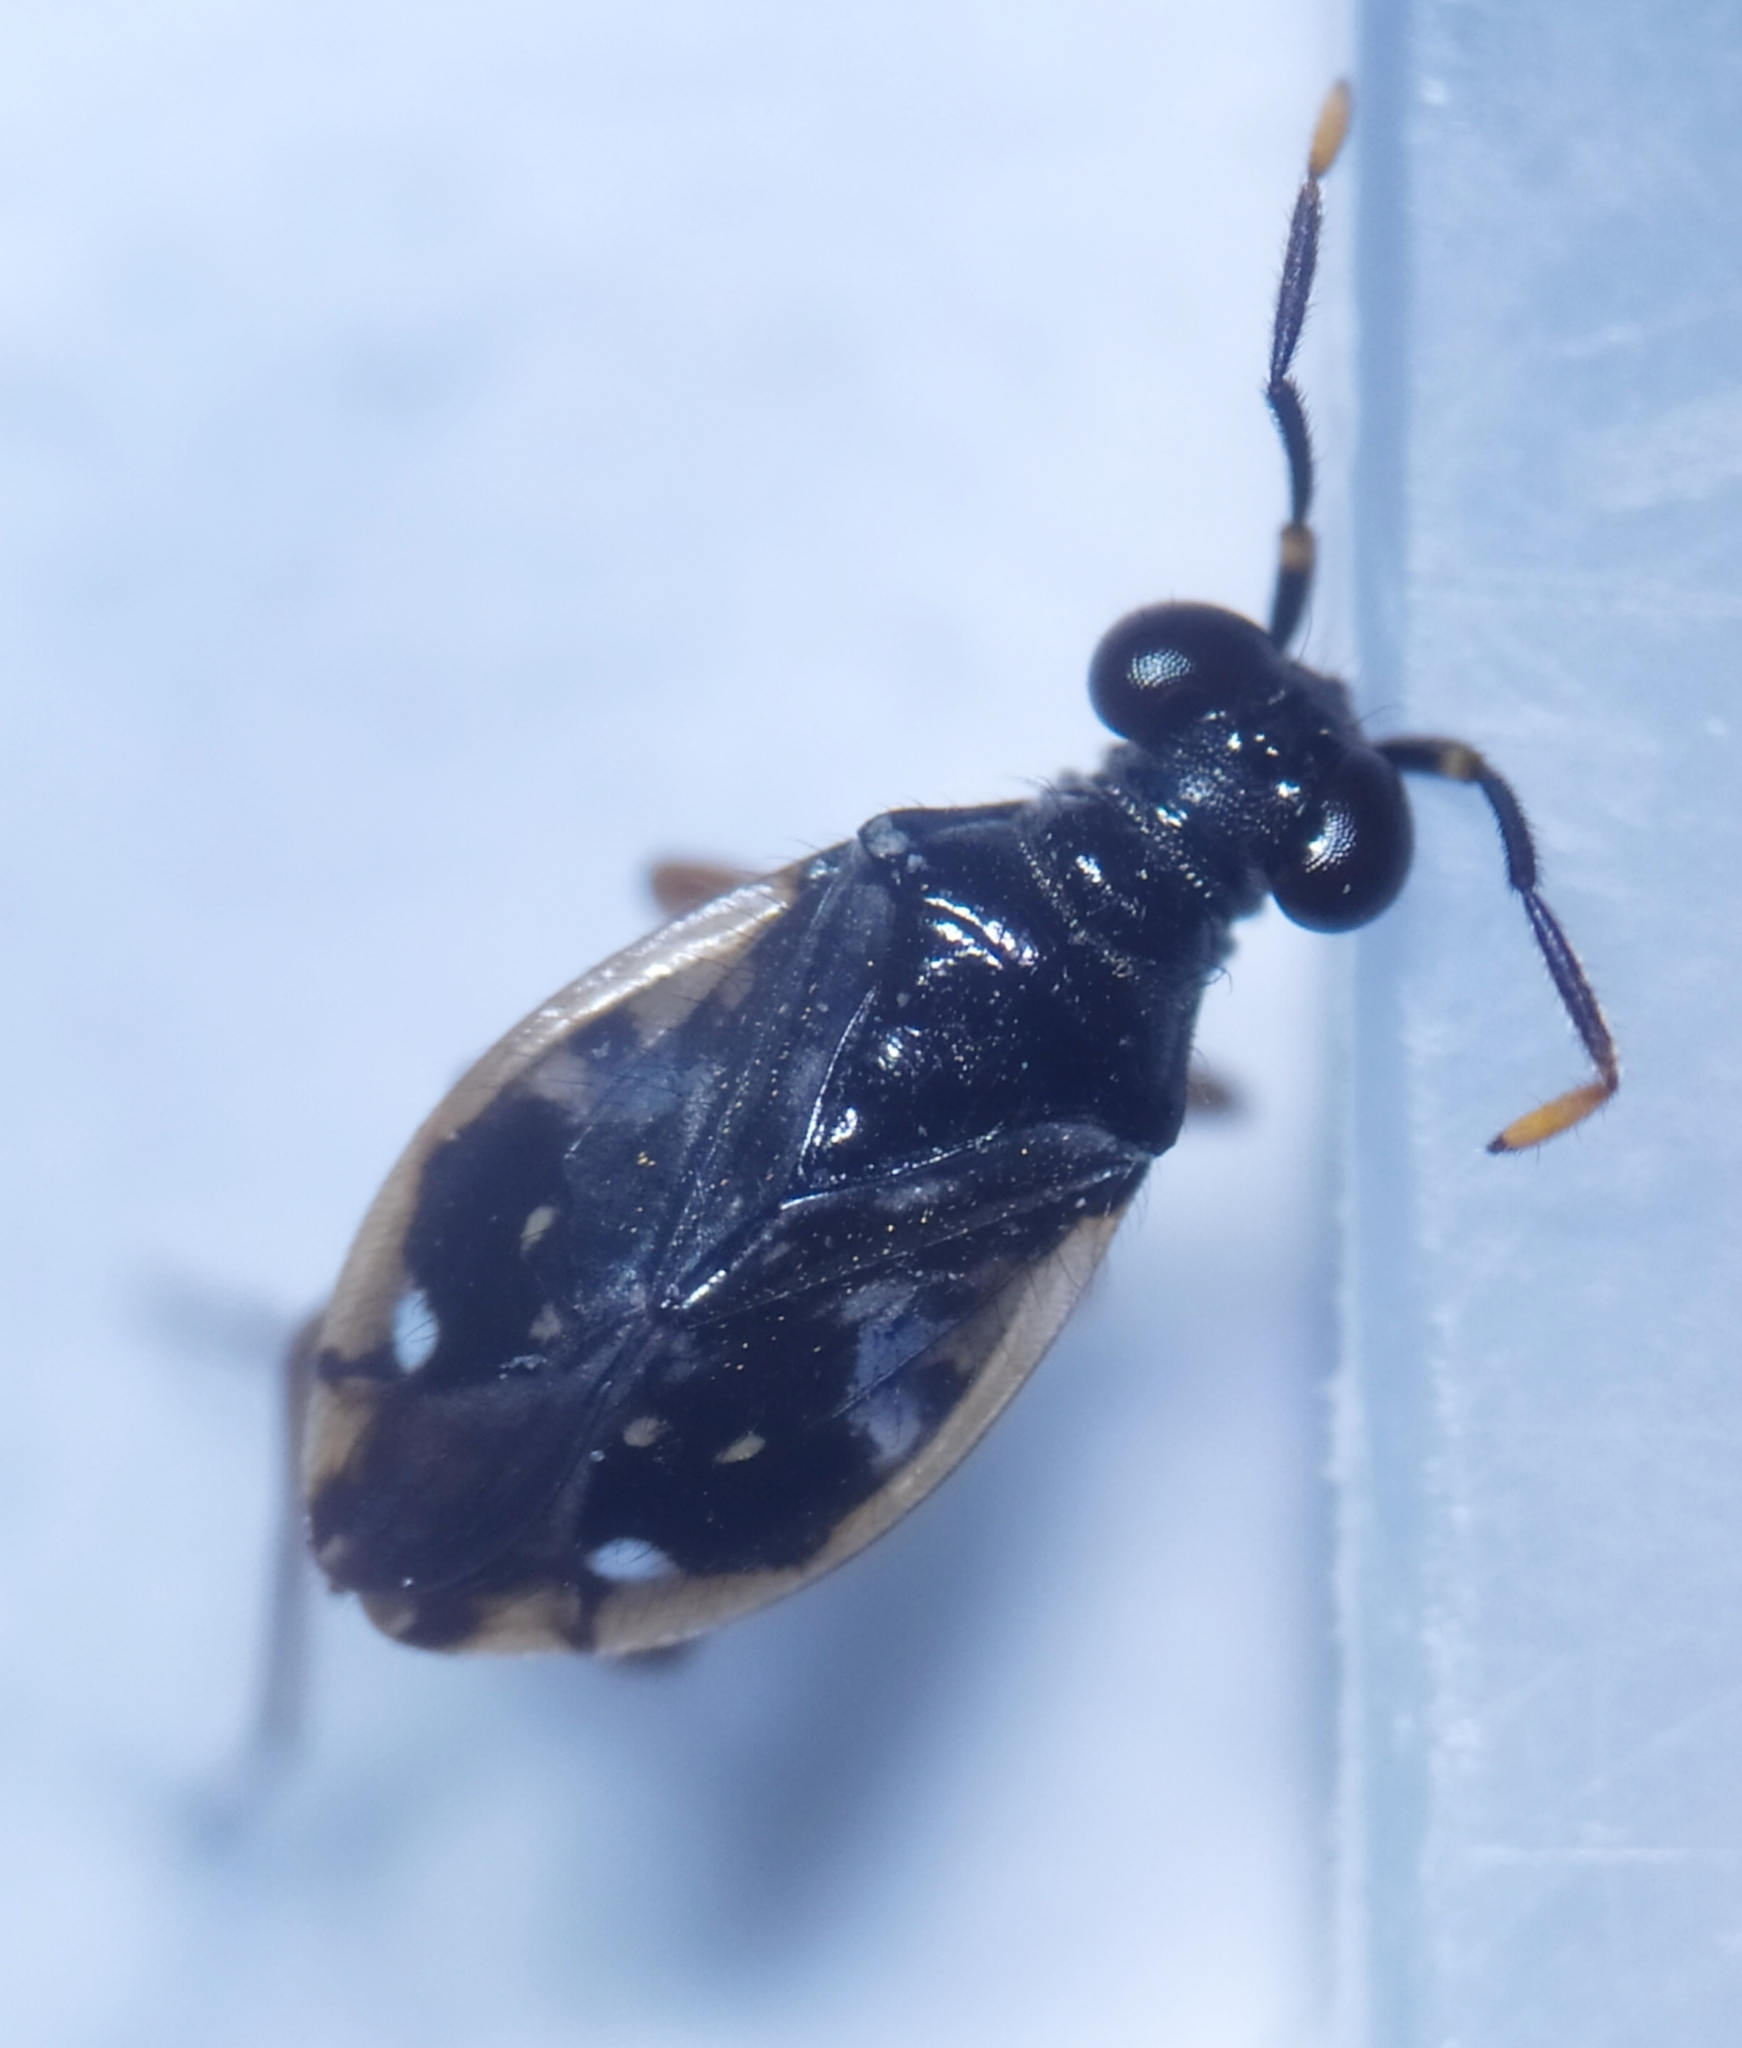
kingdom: Animalia
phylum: Arthropoda
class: Insecta
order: Hemiptera
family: Saldidae
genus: Chartoscirta
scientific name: Chartoscirta elegantula
